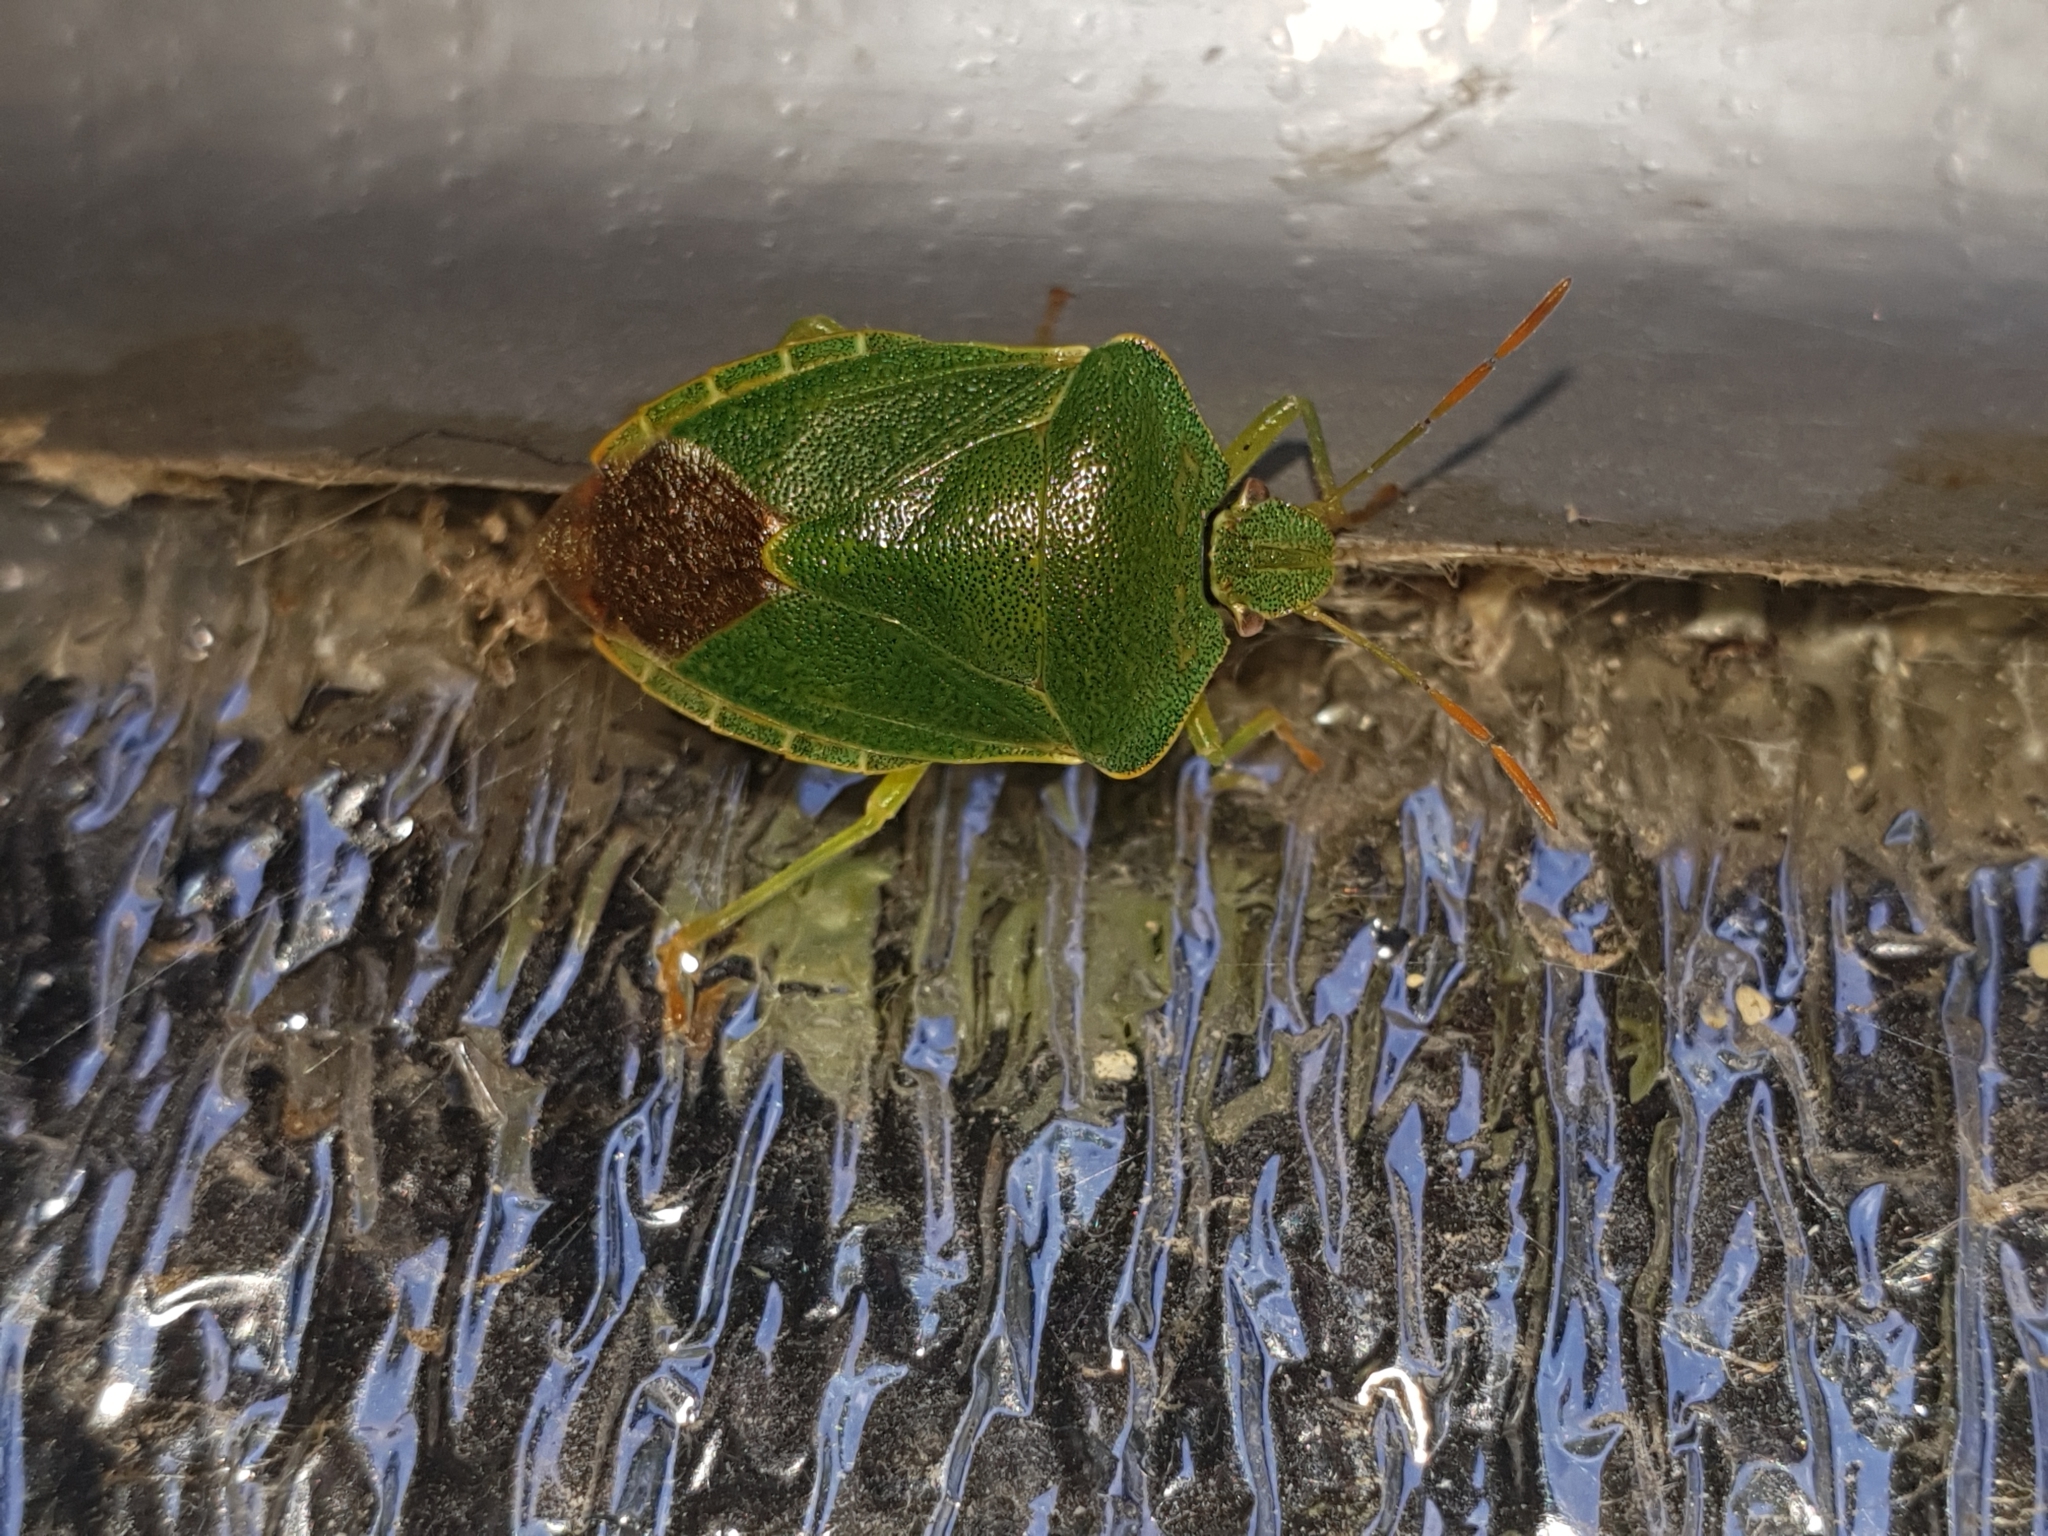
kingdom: Animalia
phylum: Arthropoda
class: Insecta
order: Hemiptera
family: Pentatomidae
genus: Palomena
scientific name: Palomena prasina
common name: Green shieldbug
